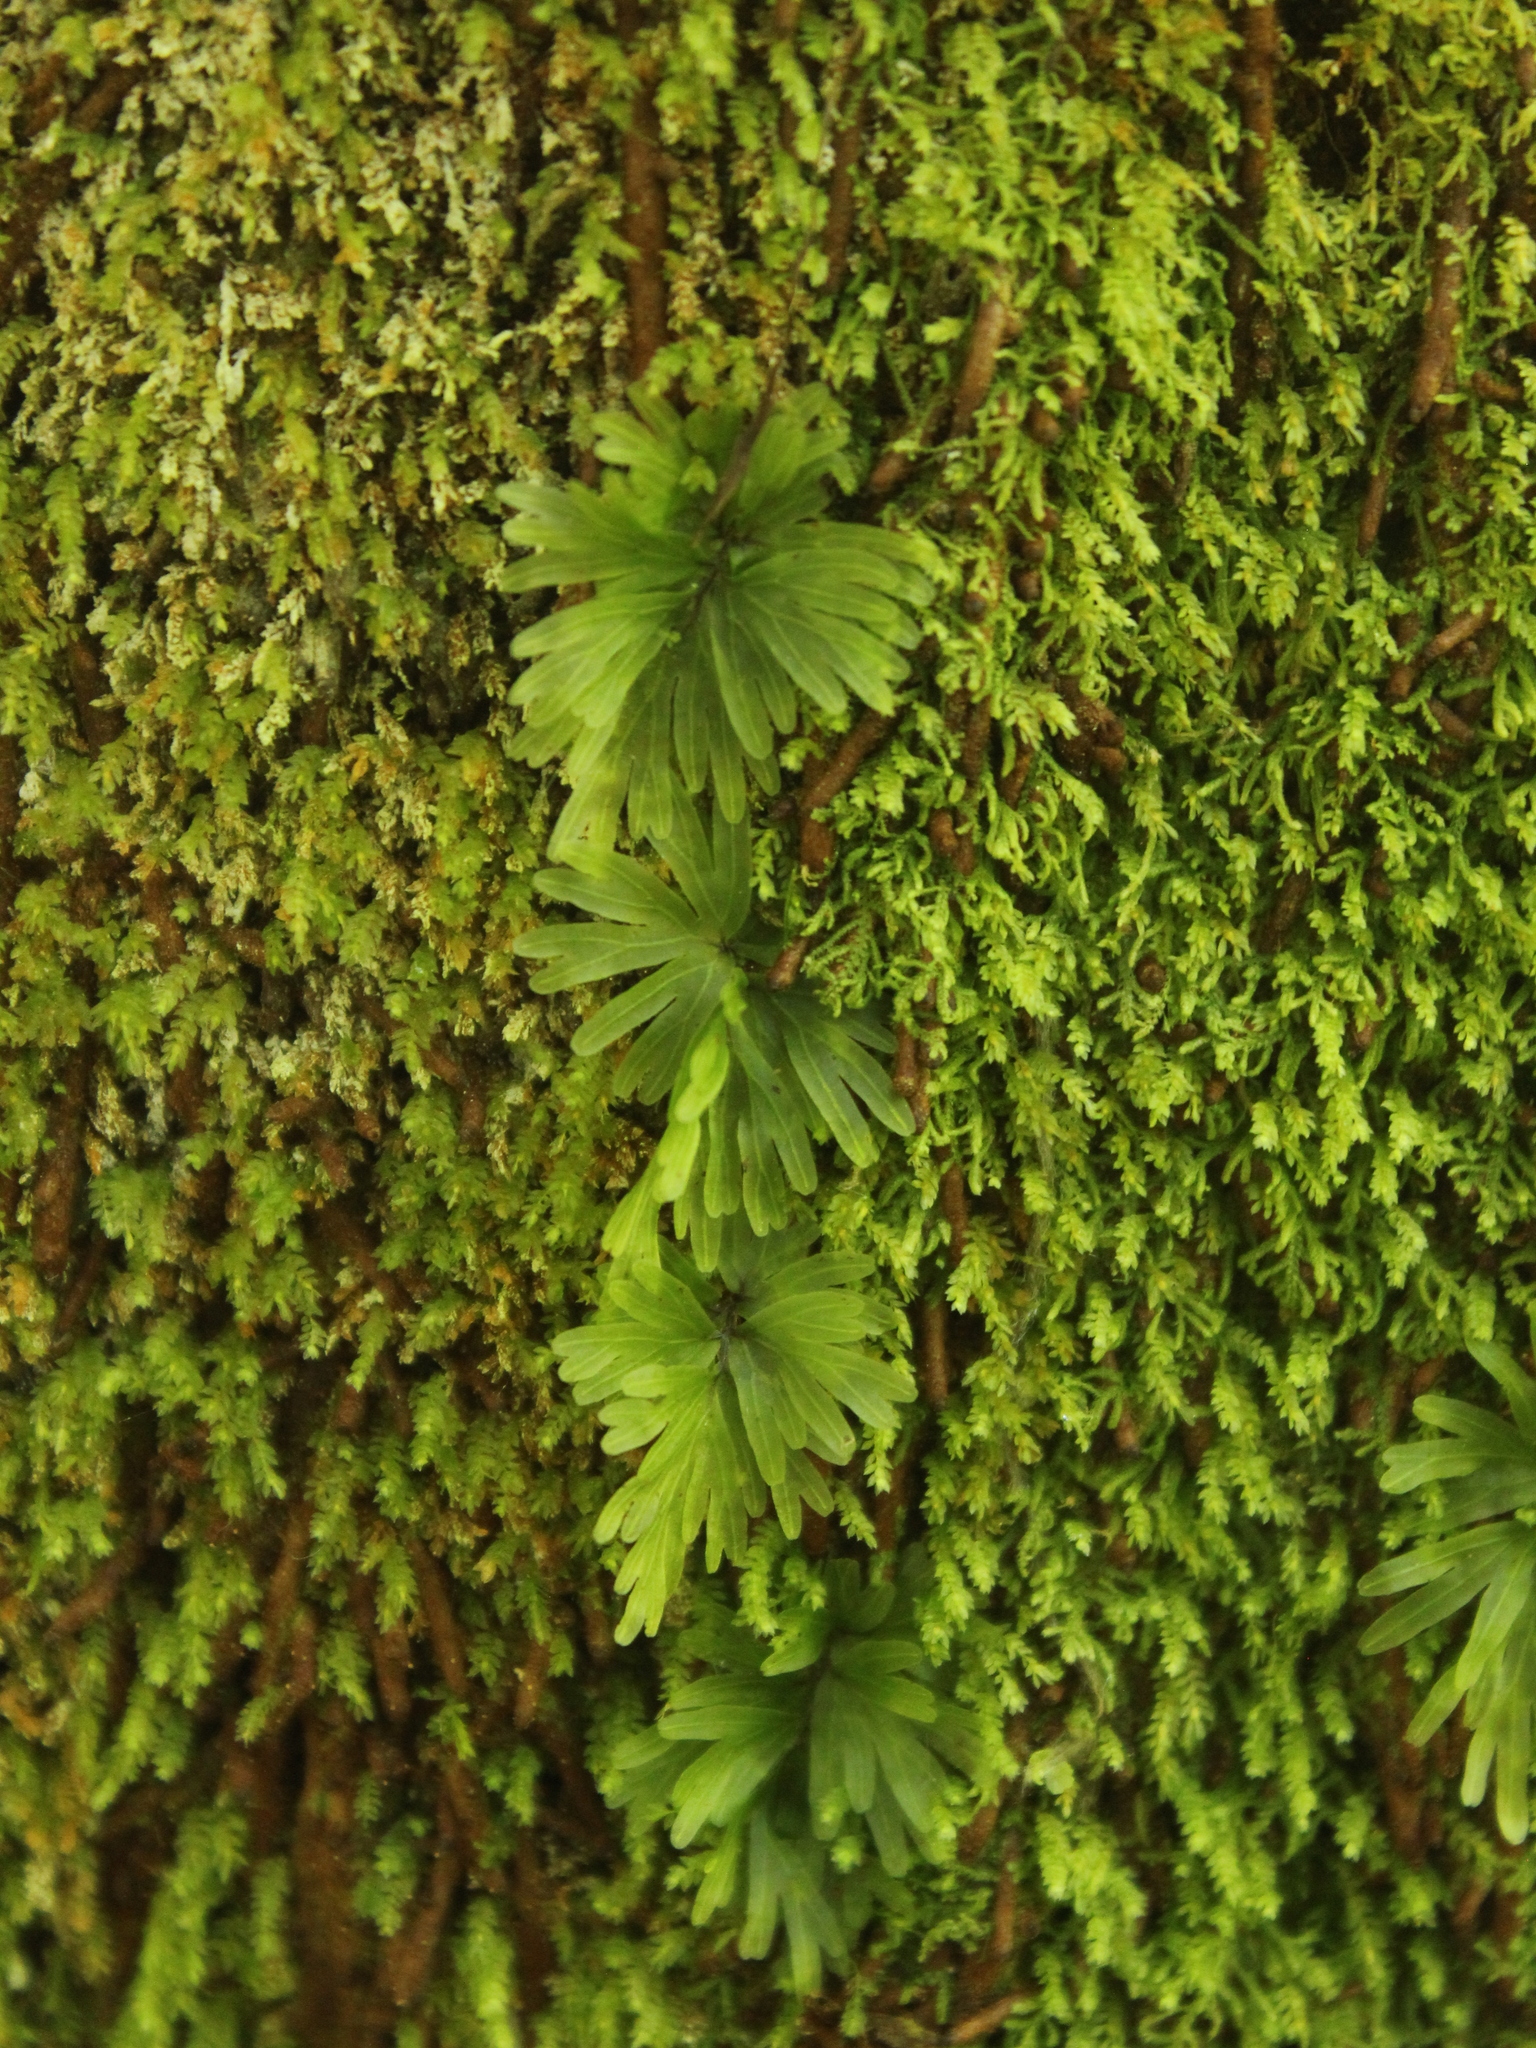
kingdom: Plantae
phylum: Tracheophyta
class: Polypodiopsida
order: Hymenophyllales
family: Hymenophyllaceae
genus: Hymenophyllum
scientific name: Hymenophyllum flabellatum
